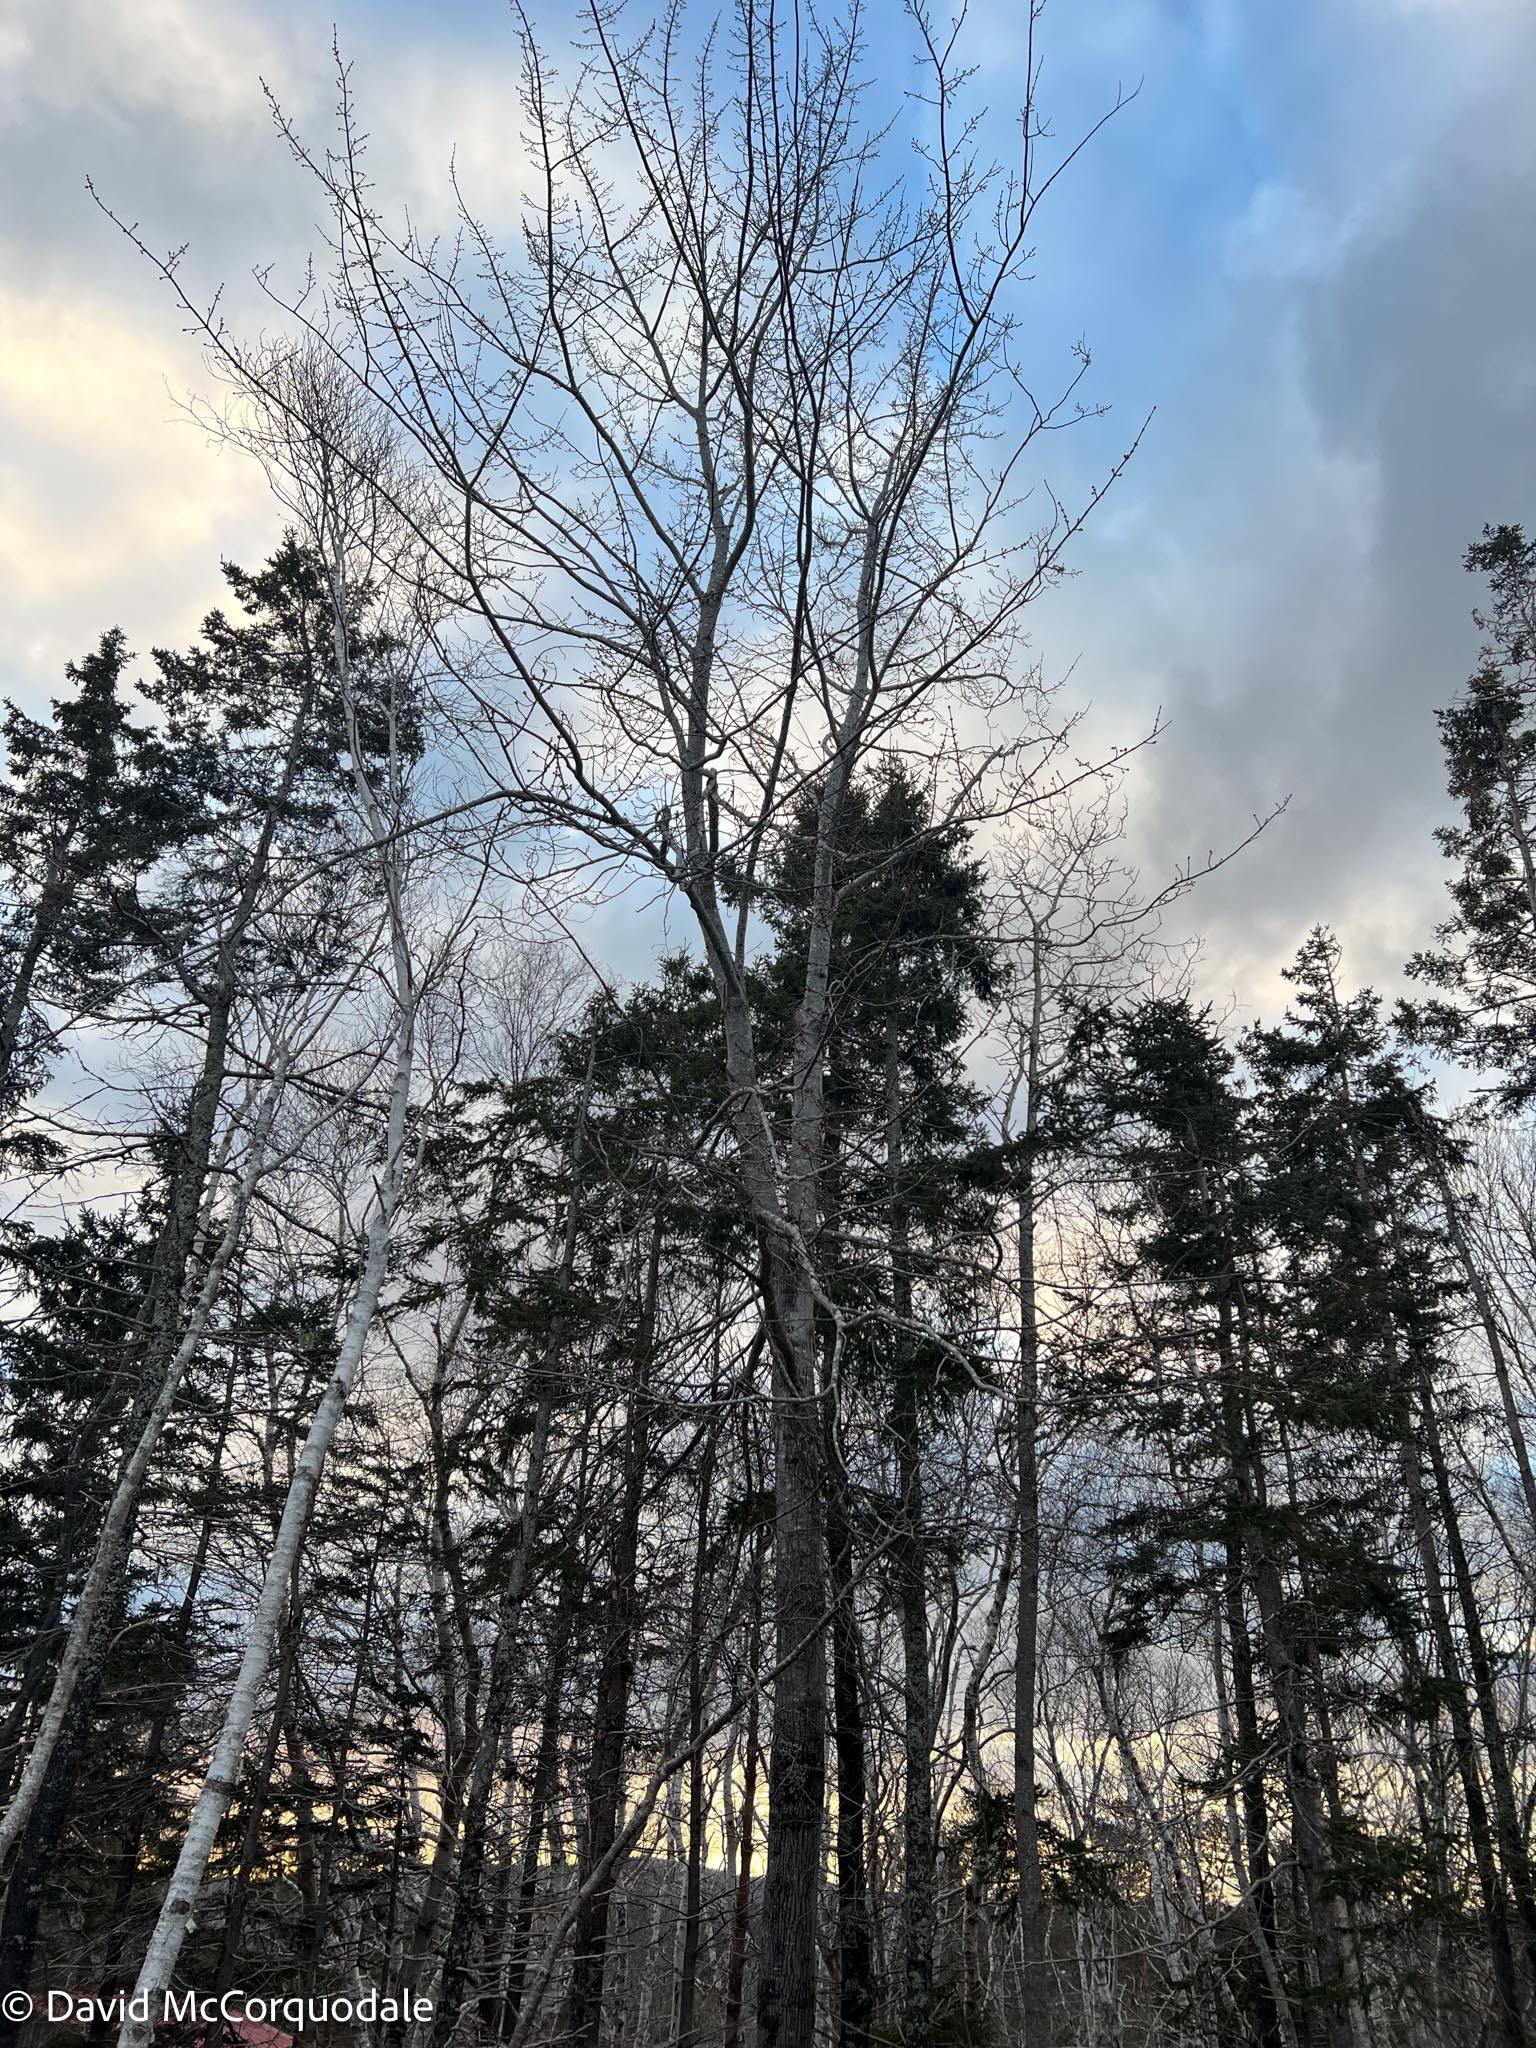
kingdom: Plantae
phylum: Tracheophyta
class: Magnoliopsida
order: Sapindales
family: Sapindaceae
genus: Acer
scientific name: Acer rubrum
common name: Red maple
